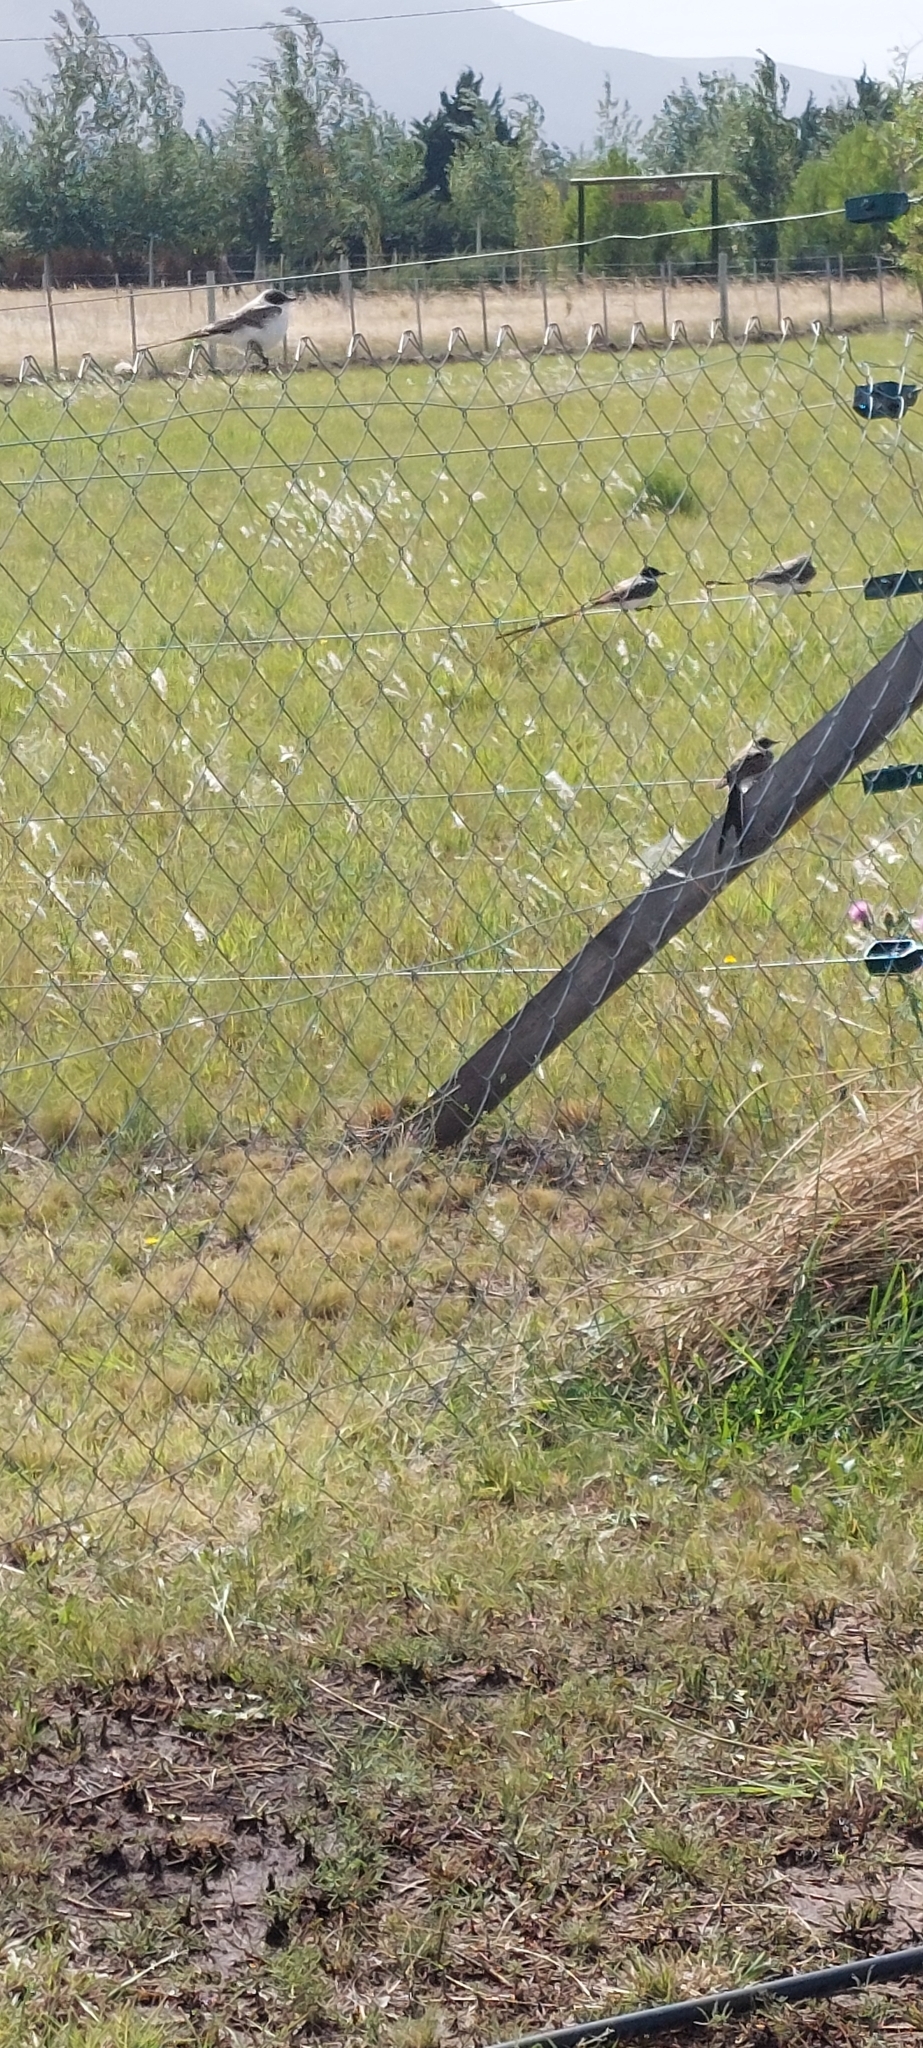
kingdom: Animalia
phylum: Chordata
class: Aves
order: Passeriformes
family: Tyrannidae
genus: Tyrannus
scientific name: Tyrannus savana
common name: Fork-tailed flycatcher
